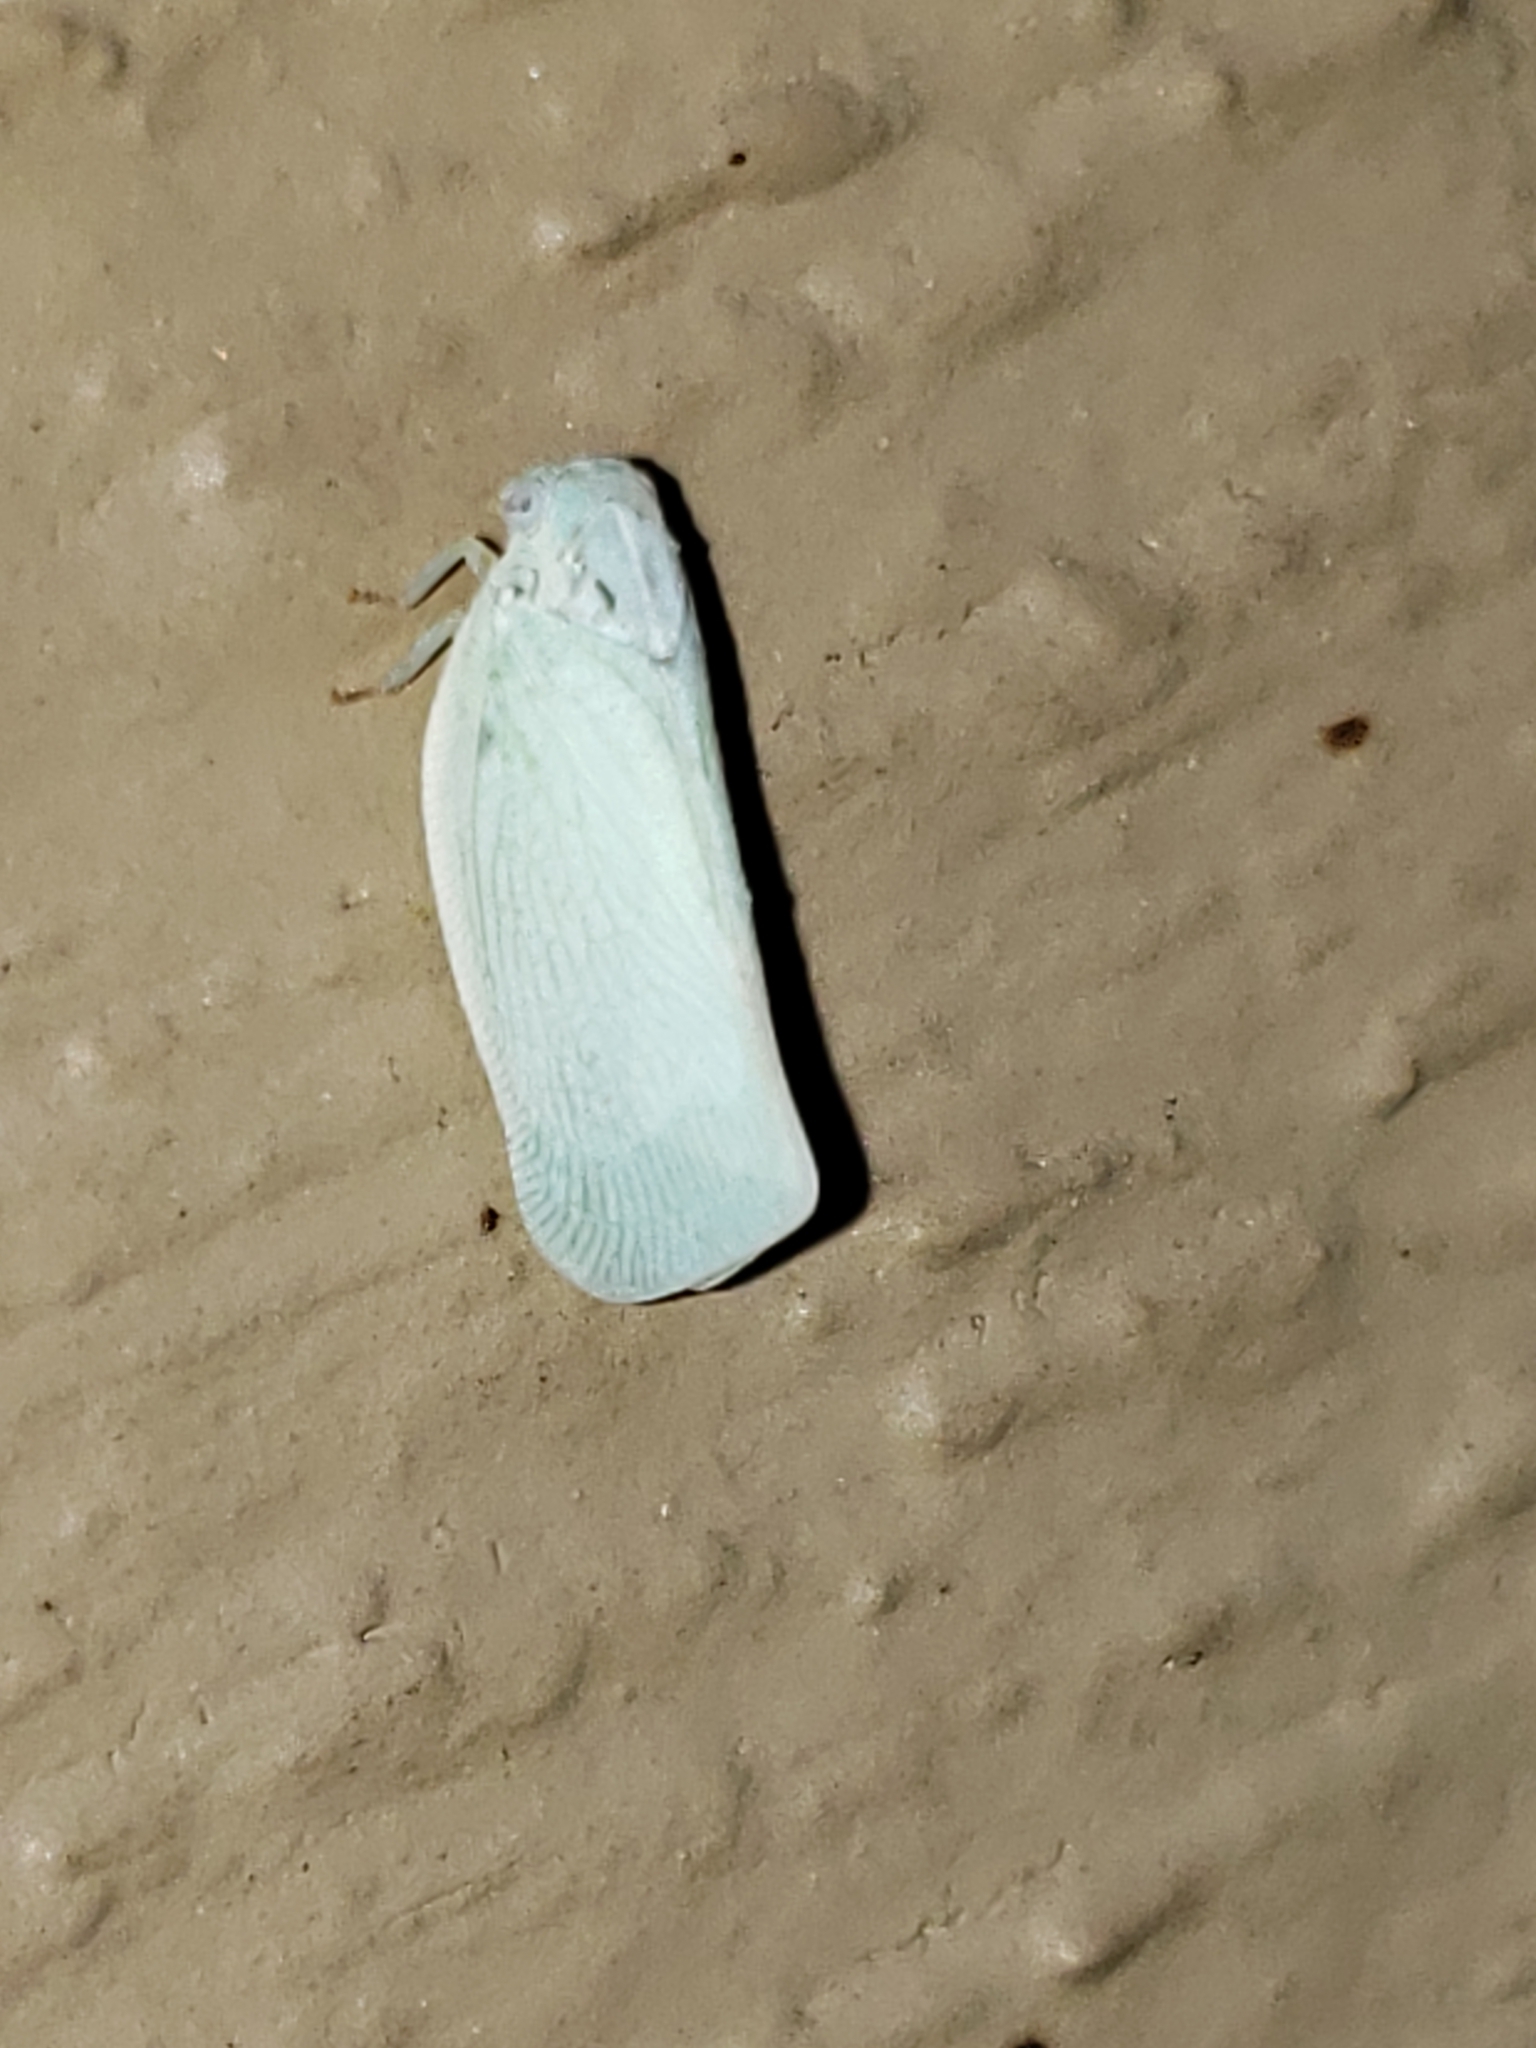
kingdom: Animalia
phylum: Arthropoda
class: Insecta
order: Hemiptera
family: Flatidae
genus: Flatormenis
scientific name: Flatormenis proxima
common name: Northern flatid planthopper
